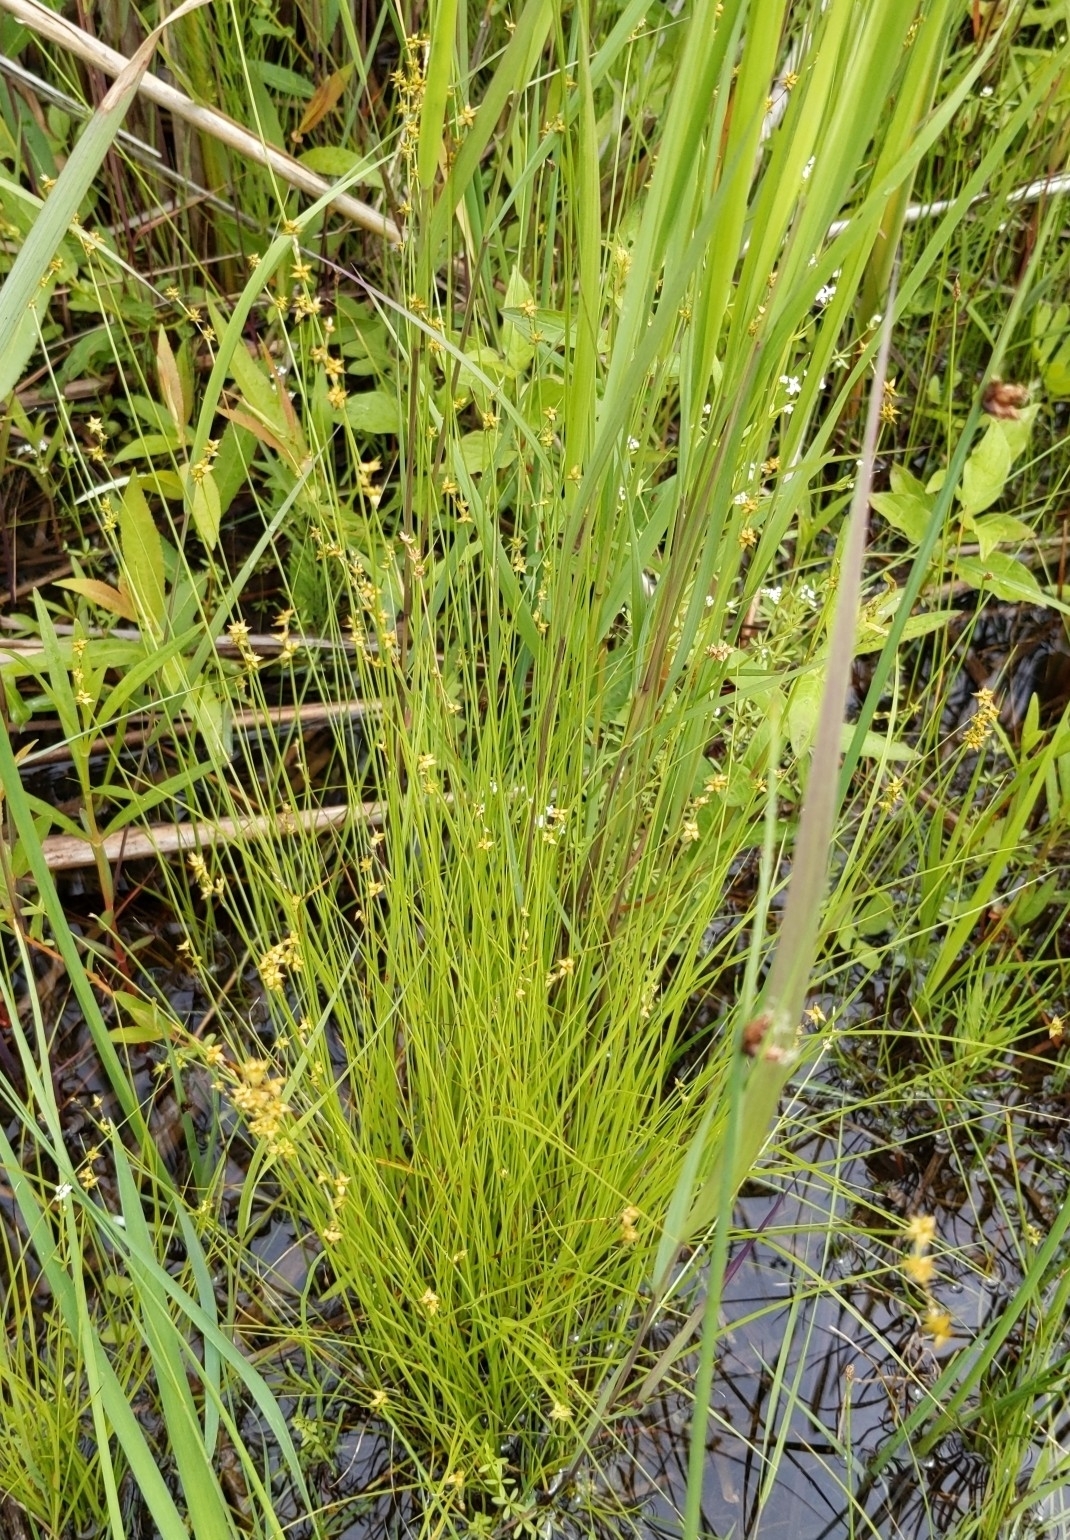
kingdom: Plantae
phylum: Tracheophyta
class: Liliopsida
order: Poales
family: Cyperaceae
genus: Carex
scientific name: Carex interior
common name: Inland sedge
